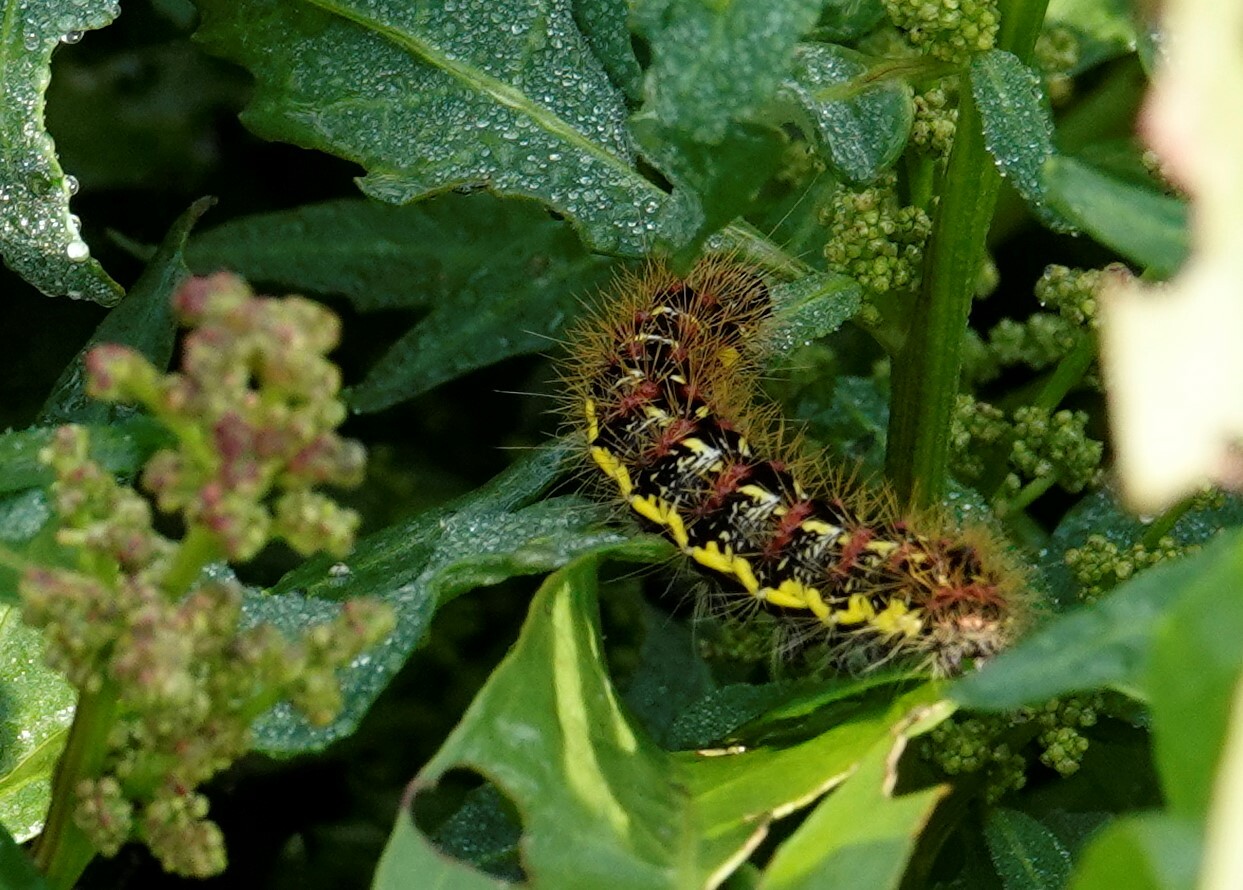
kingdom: Animalia
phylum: Arthropoda
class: Insecta
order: Lepidoptera
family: Noctuidae
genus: Acronicta
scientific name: Acronicta oblinita
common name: Smeared dagger
